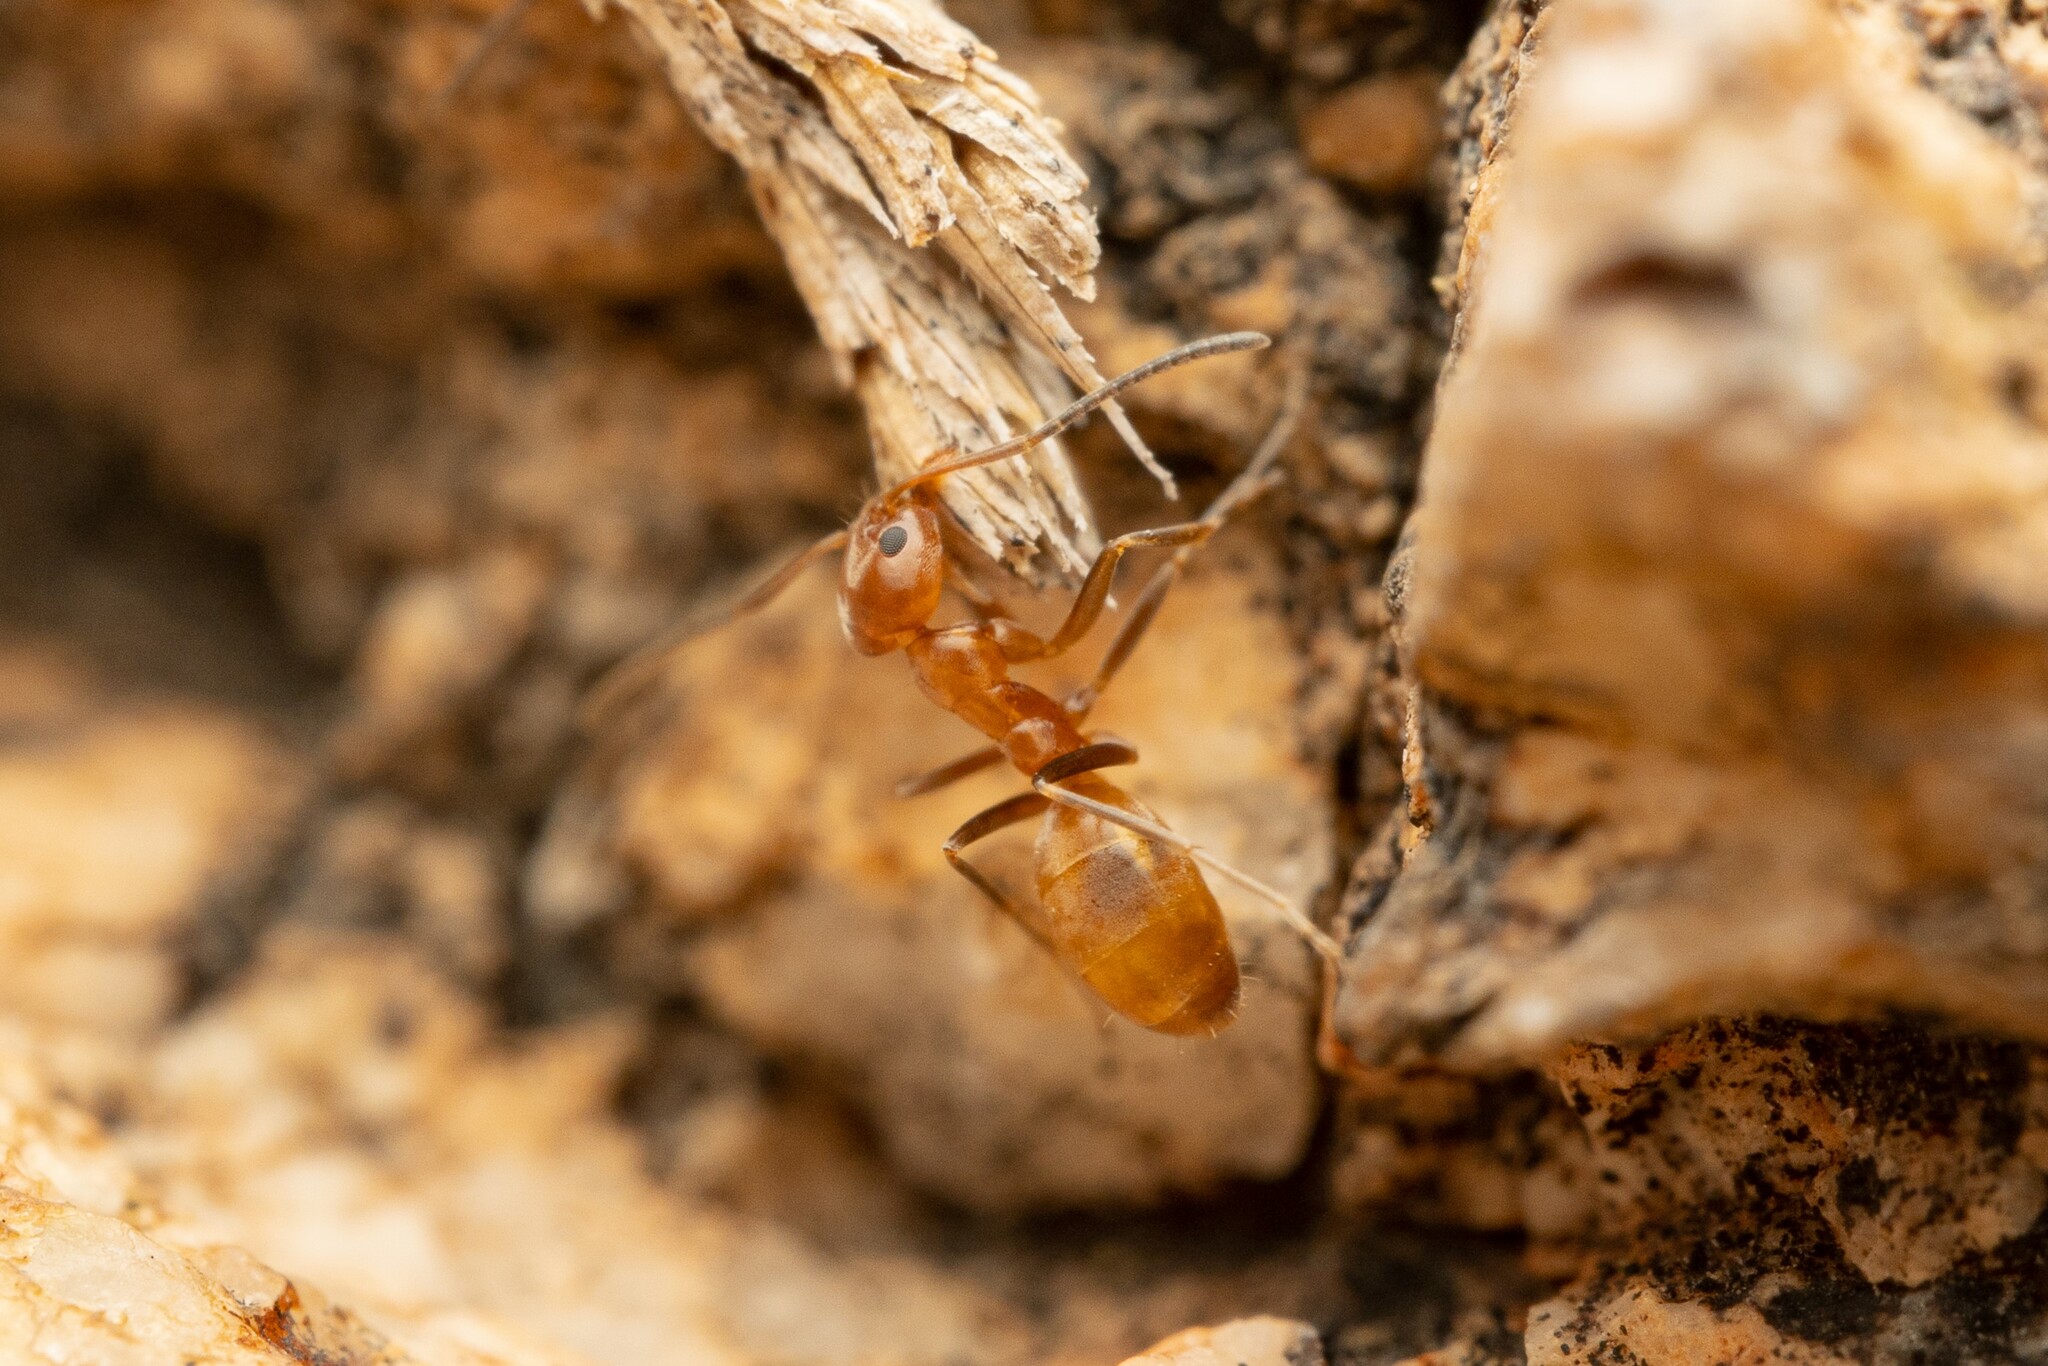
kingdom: Animalia
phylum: Arthropoda
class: Insecta
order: Hymenoptera
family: Formicidae
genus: Forelius
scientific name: Forelius pruinosus
